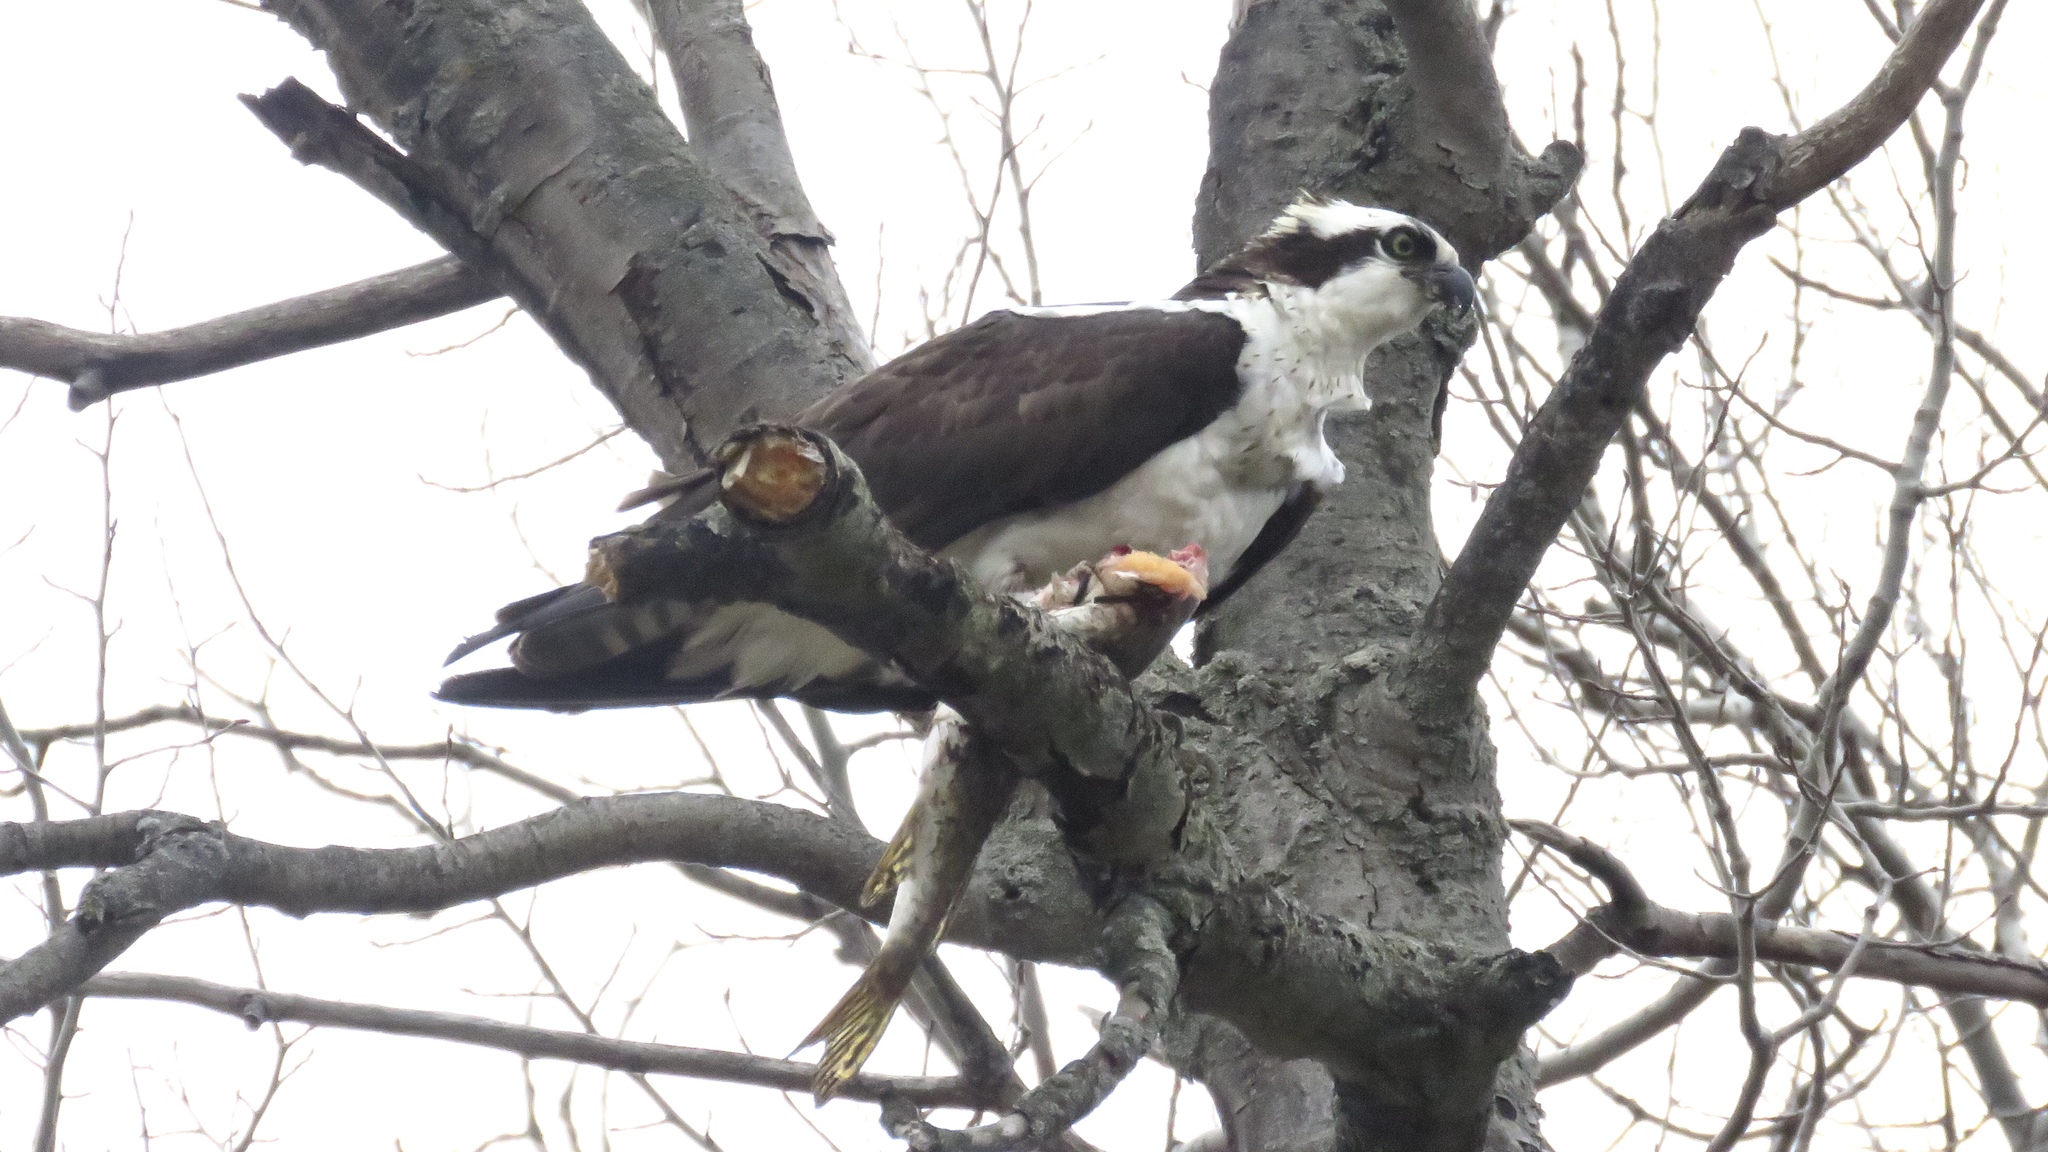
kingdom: Animalia
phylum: Chordata
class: Aves
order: Accipitriformes
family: Pandionidae
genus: Pandion
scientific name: Pandion haliaetus
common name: Osprey
